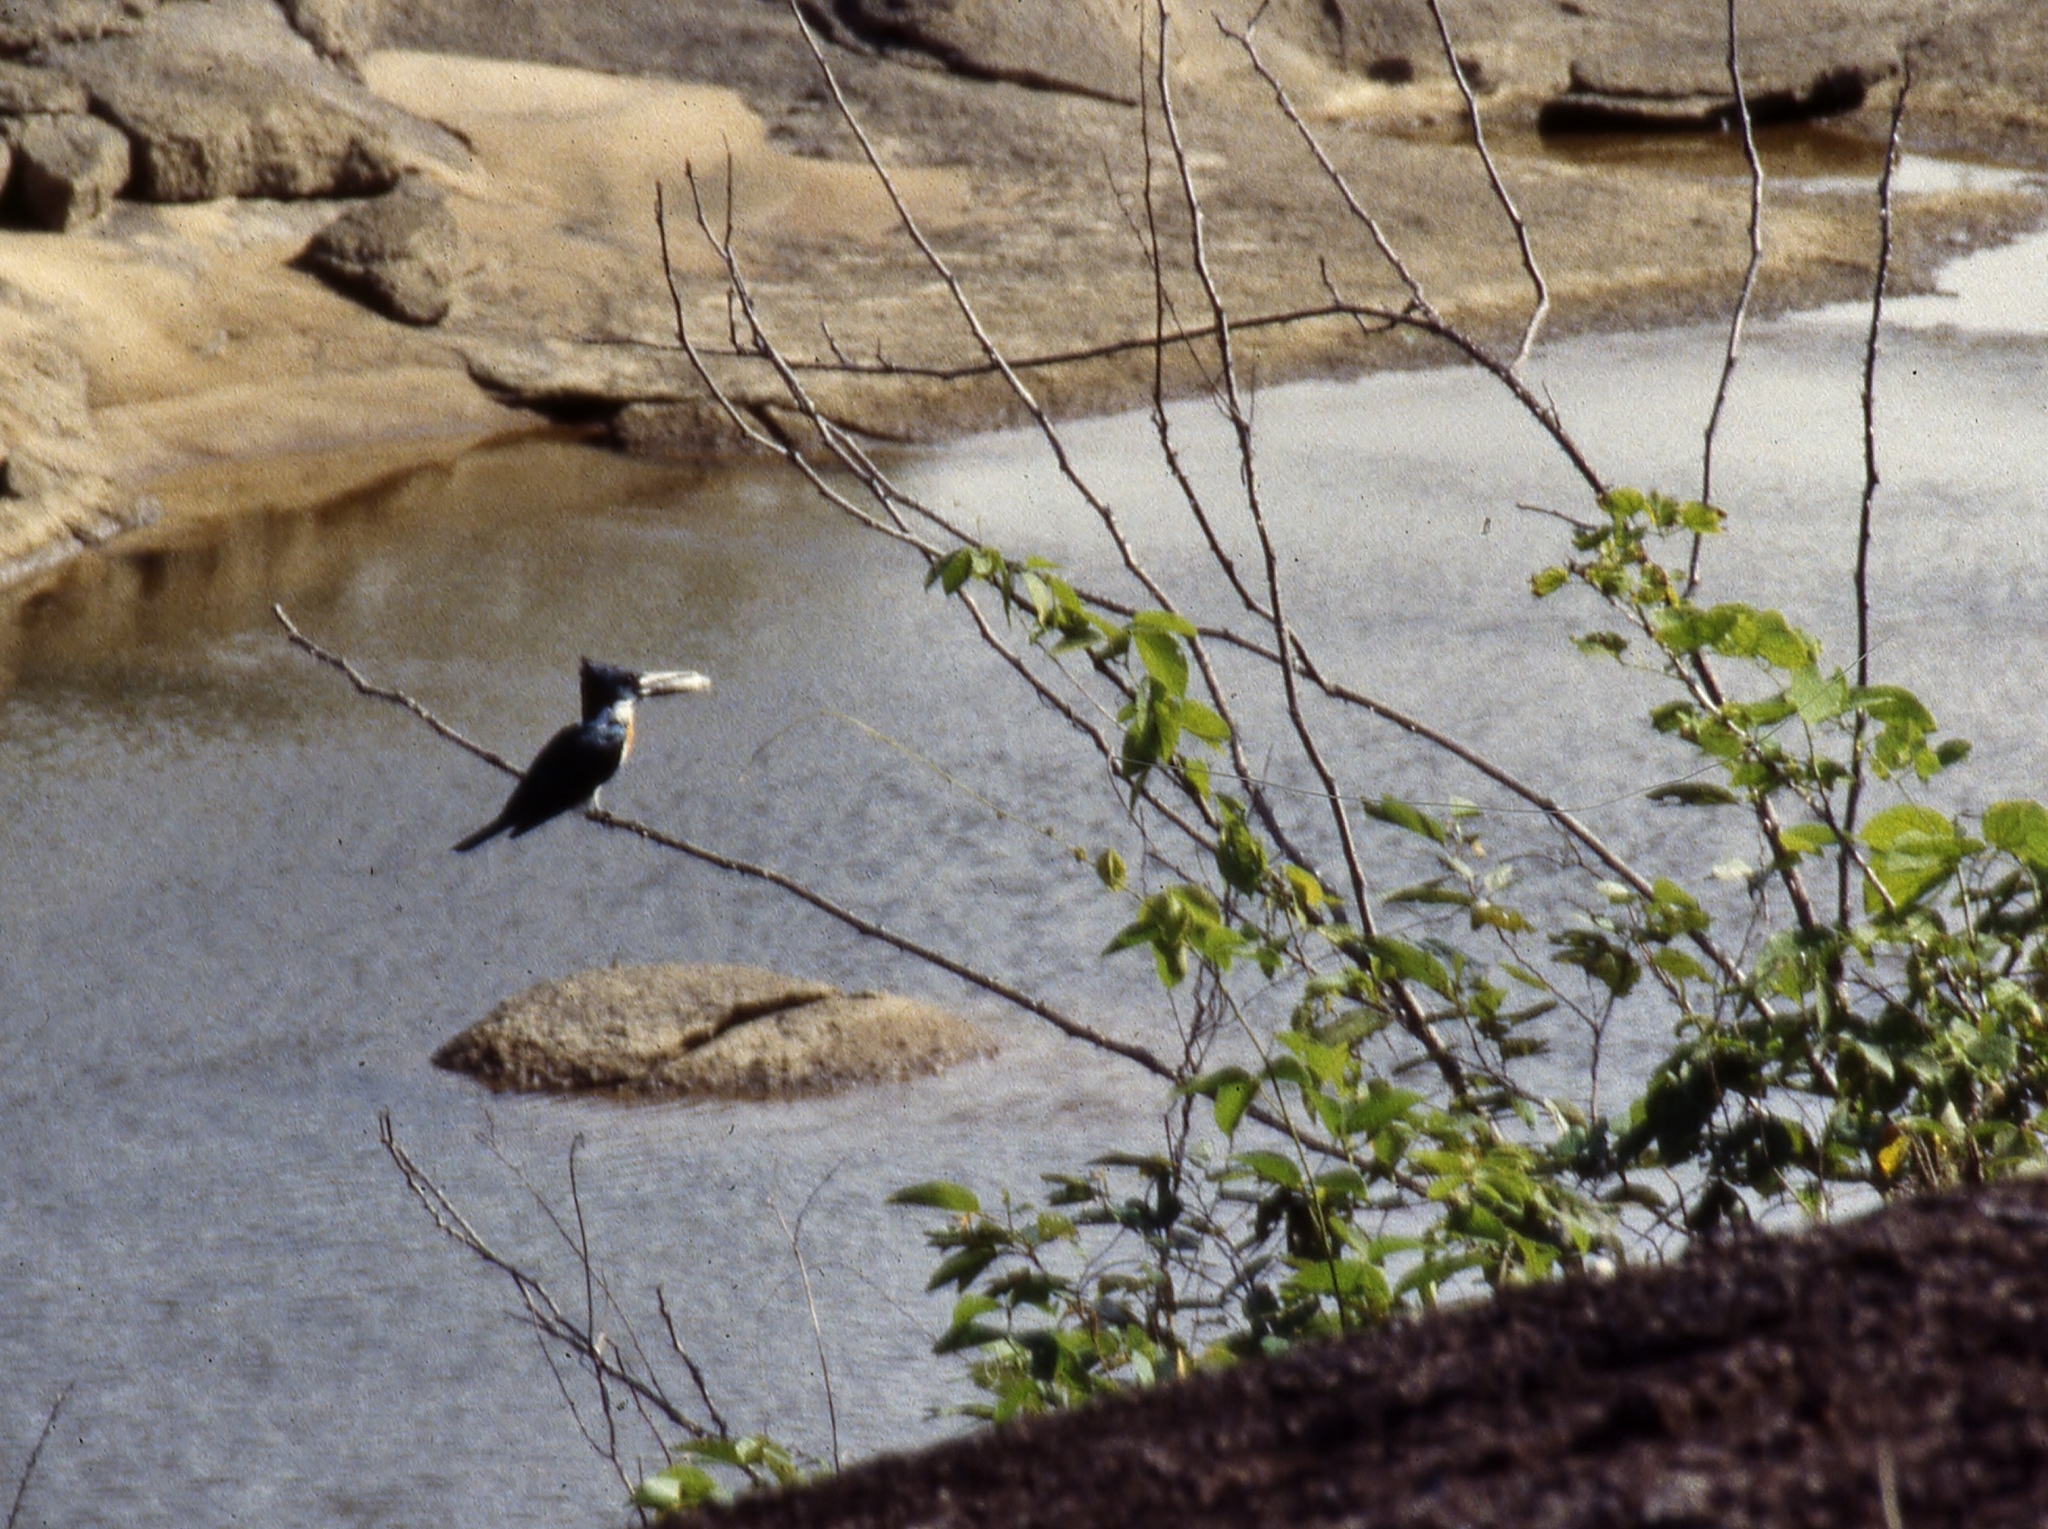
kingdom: Animalia
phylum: Chordata
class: Aves
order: Coraciiformes
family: Alcedinidae
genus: Chloroceryle
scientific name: Chloroceryle amazona
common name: Amazon kingfisher
